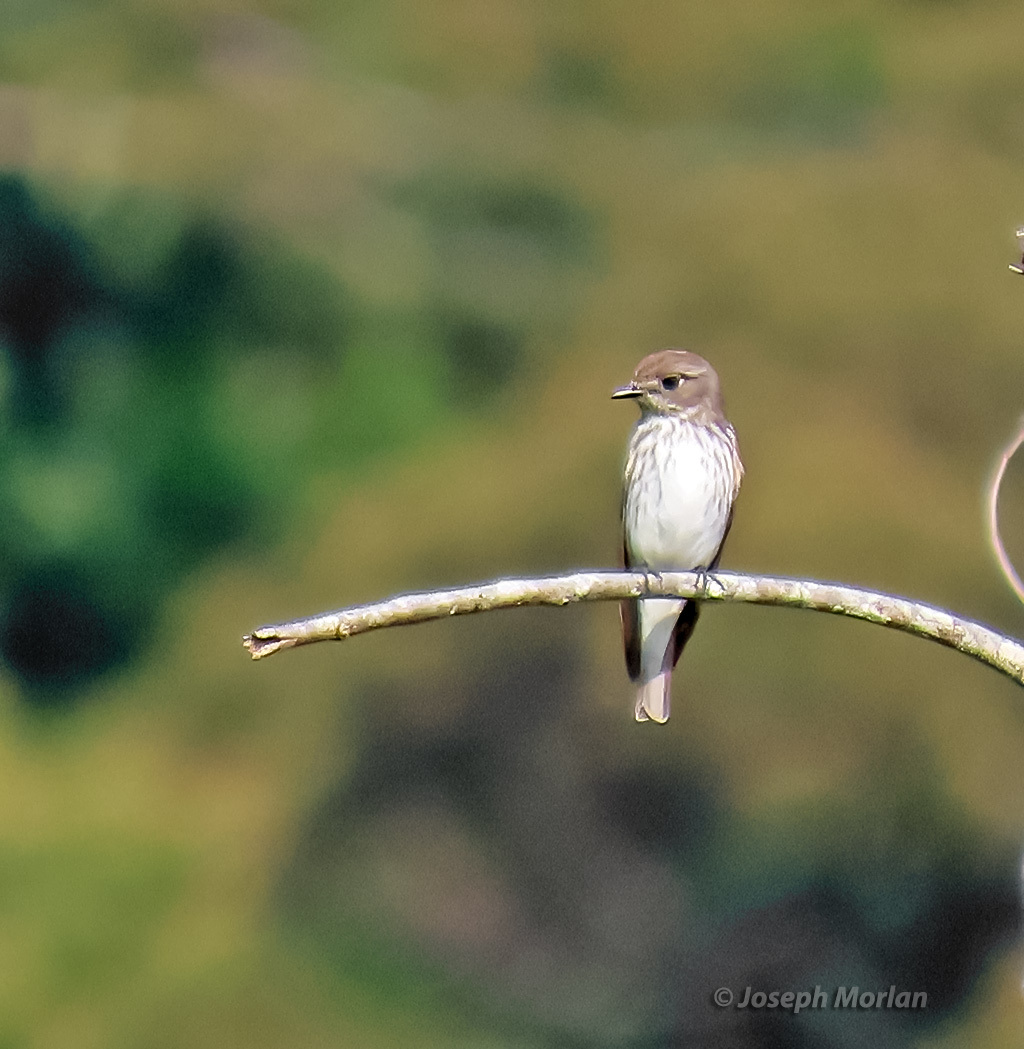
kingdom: Animalia
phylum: Chordata
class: Aves
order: Passeriformes
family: Muscicapidae
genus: Muscicapa
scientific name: Muscicapa griseisticta
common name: Gray-streaked flycatcher
